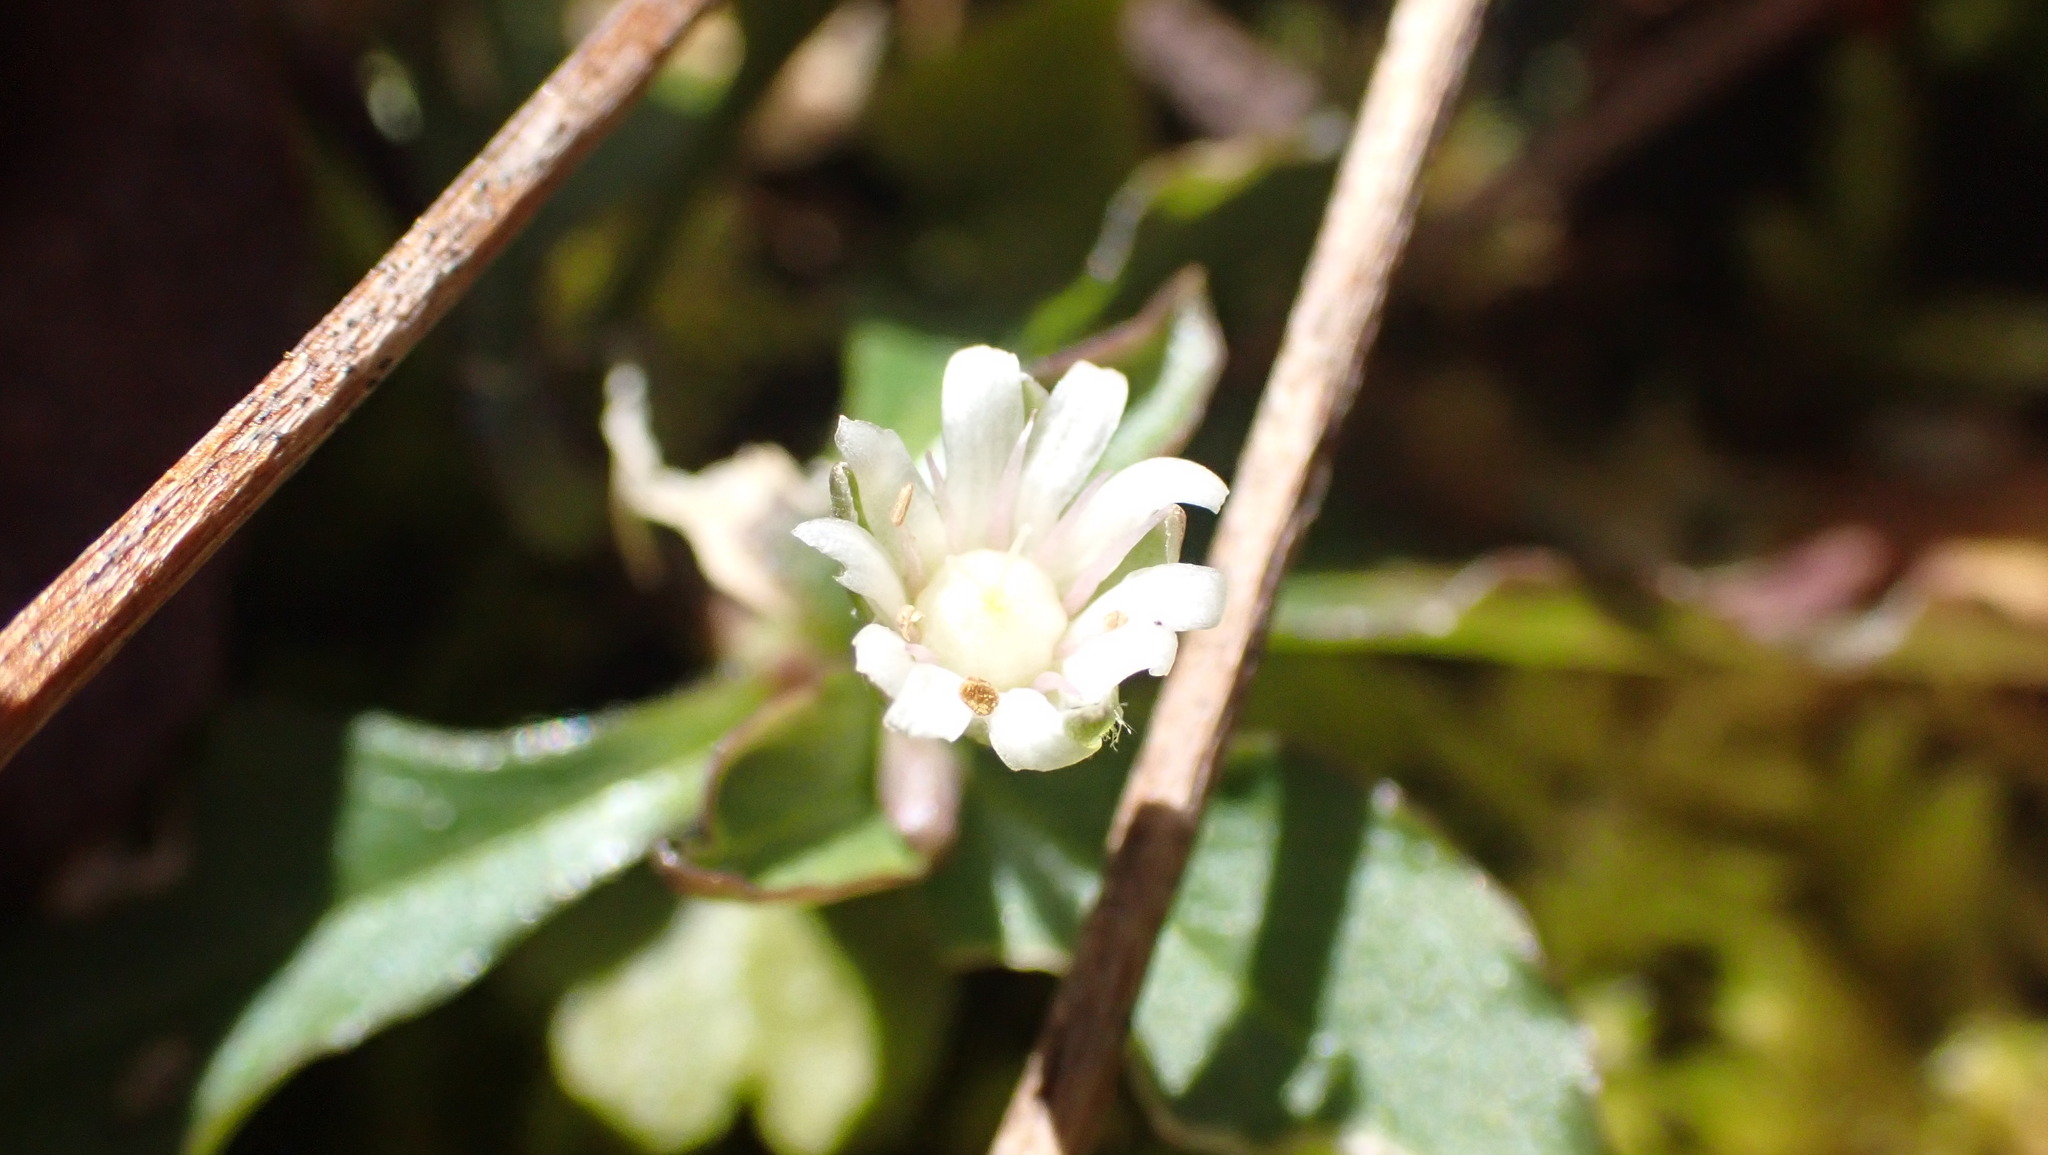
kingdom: Plantae
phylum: Tracheophyta
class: Magnoliopsida
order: Caryophyllales
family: Caryophyllaceae
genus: Stellaria
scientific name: Stellaria pubera
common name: Star chickweed
